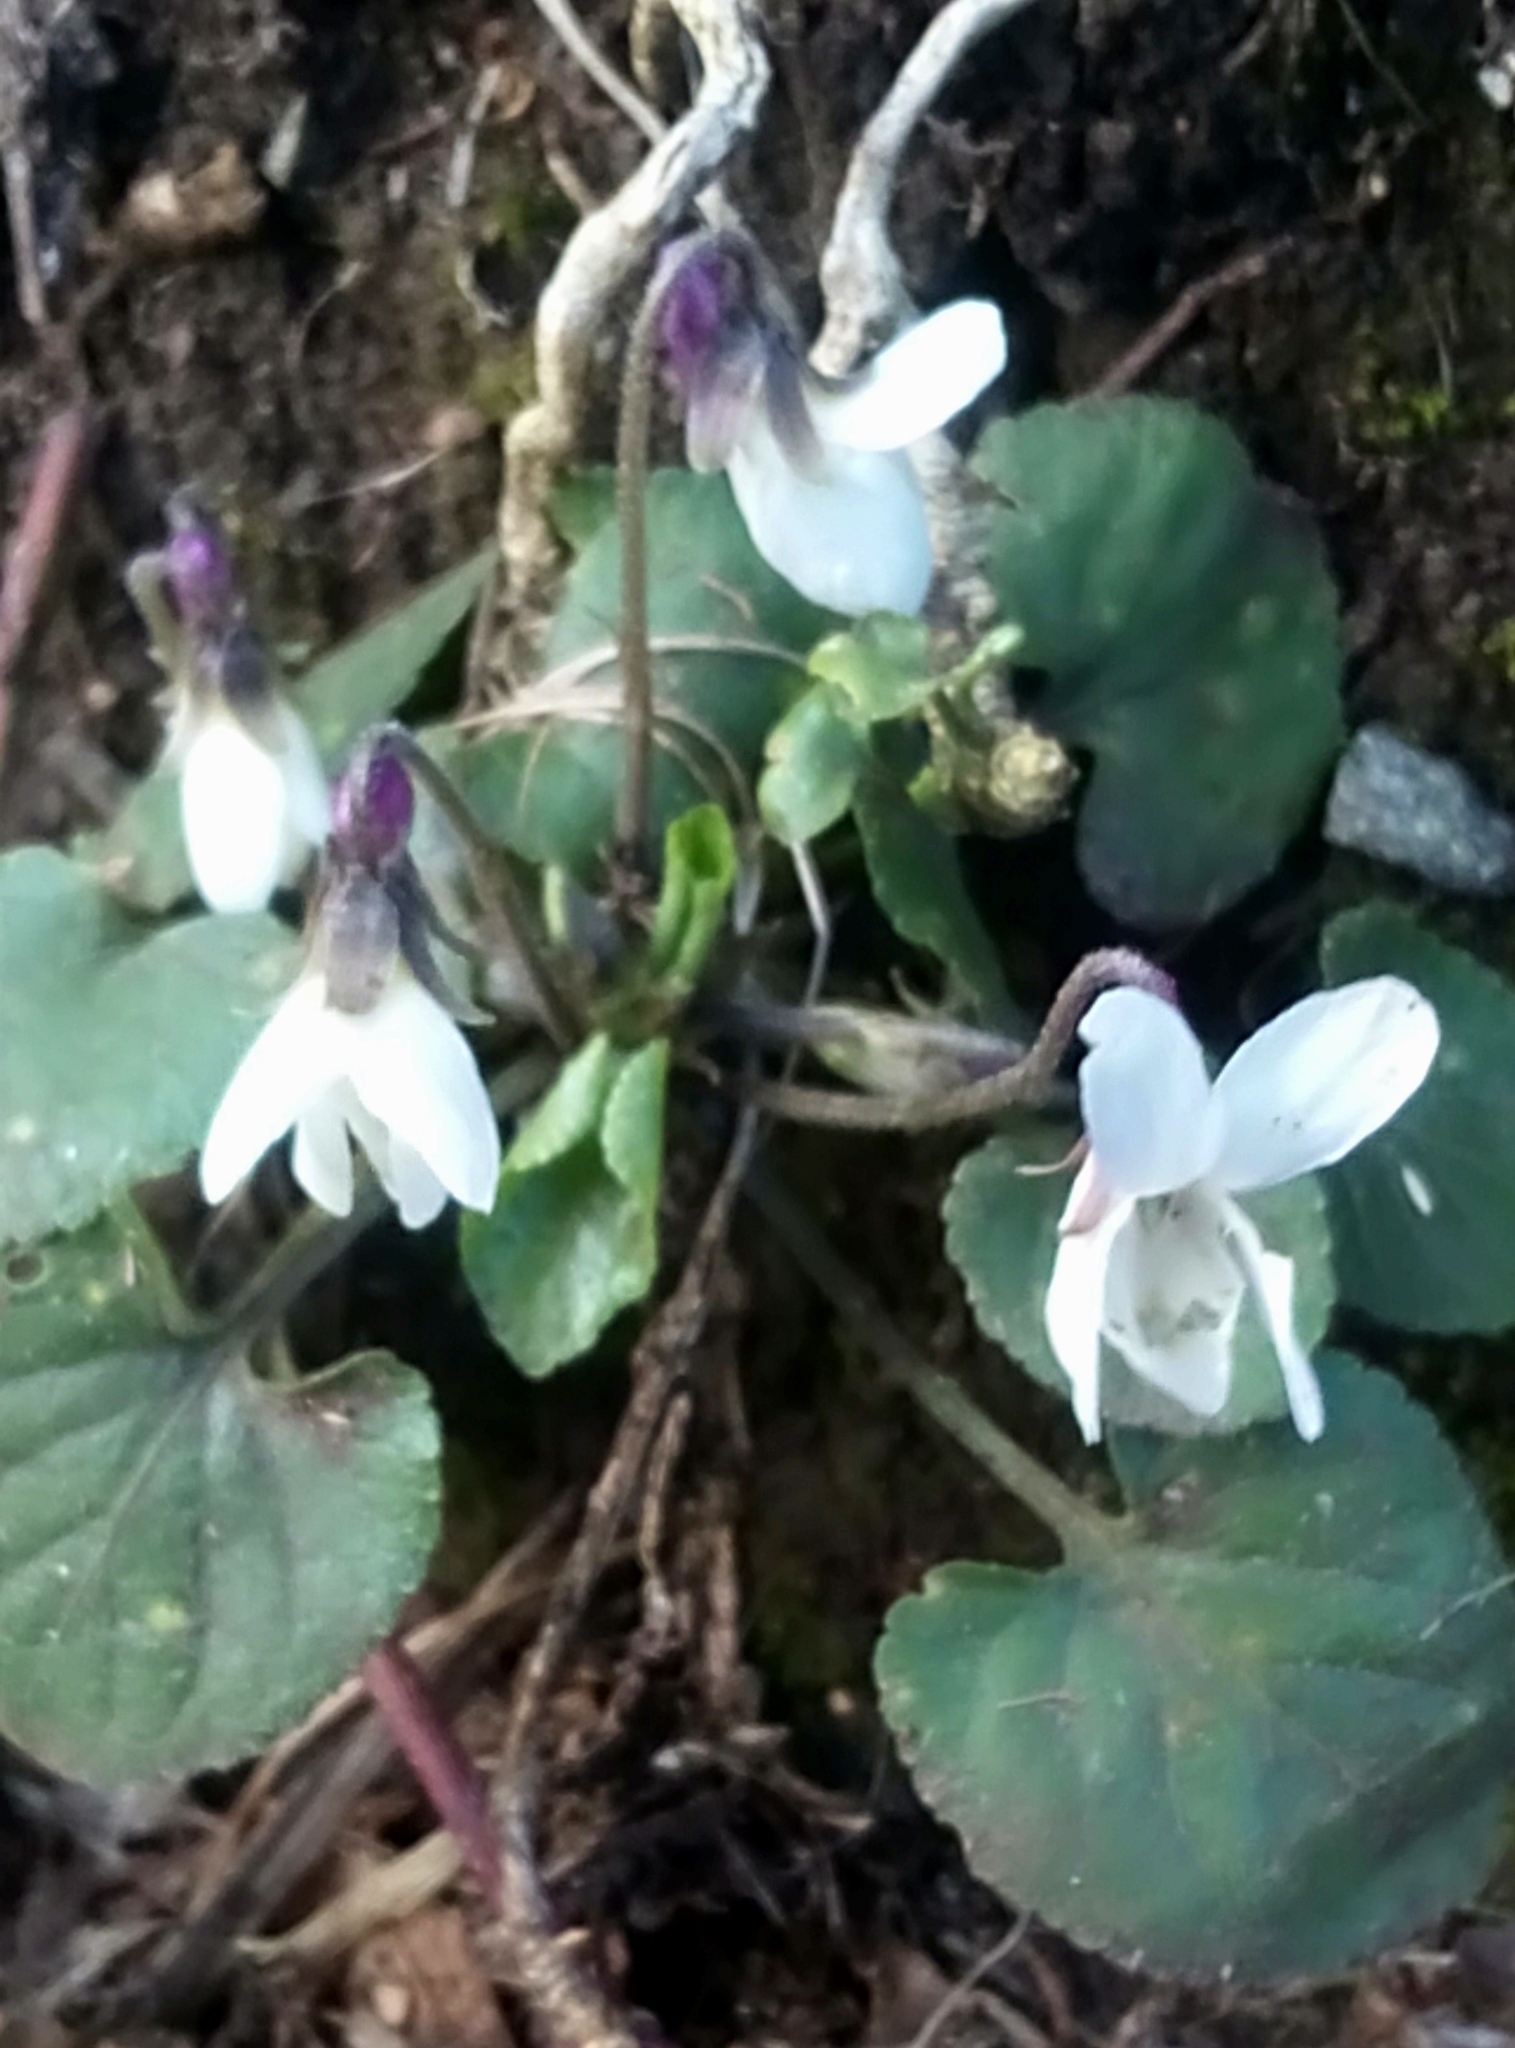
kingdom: Plantae
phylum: Tracheophyta
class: Magnoliopsida
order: Malpighiales
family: Violaceae
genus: Viola
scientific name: Viola odorata
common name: Sweet violet
